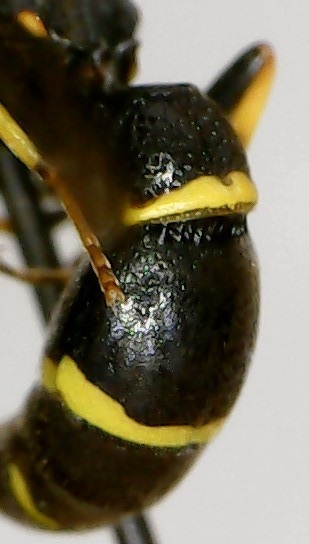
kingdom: Animalia
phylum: Arthropoda
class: Insecta
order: Hymenoptera
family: Eumenidae
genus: Symmorphus
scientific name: Symmorphus canadensis
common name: Canadian potter wasp
